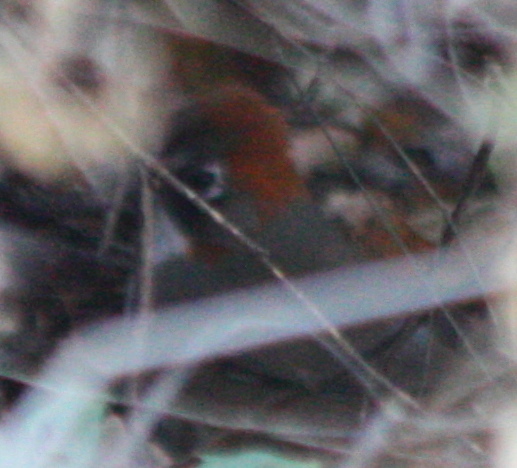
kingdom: Animalia
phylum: Chordata
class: Aves
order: Passeriformes
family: Passerellidae
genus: Melozone
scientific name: Melozone kieneri
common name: Rusty-crowned ground-sparrow
